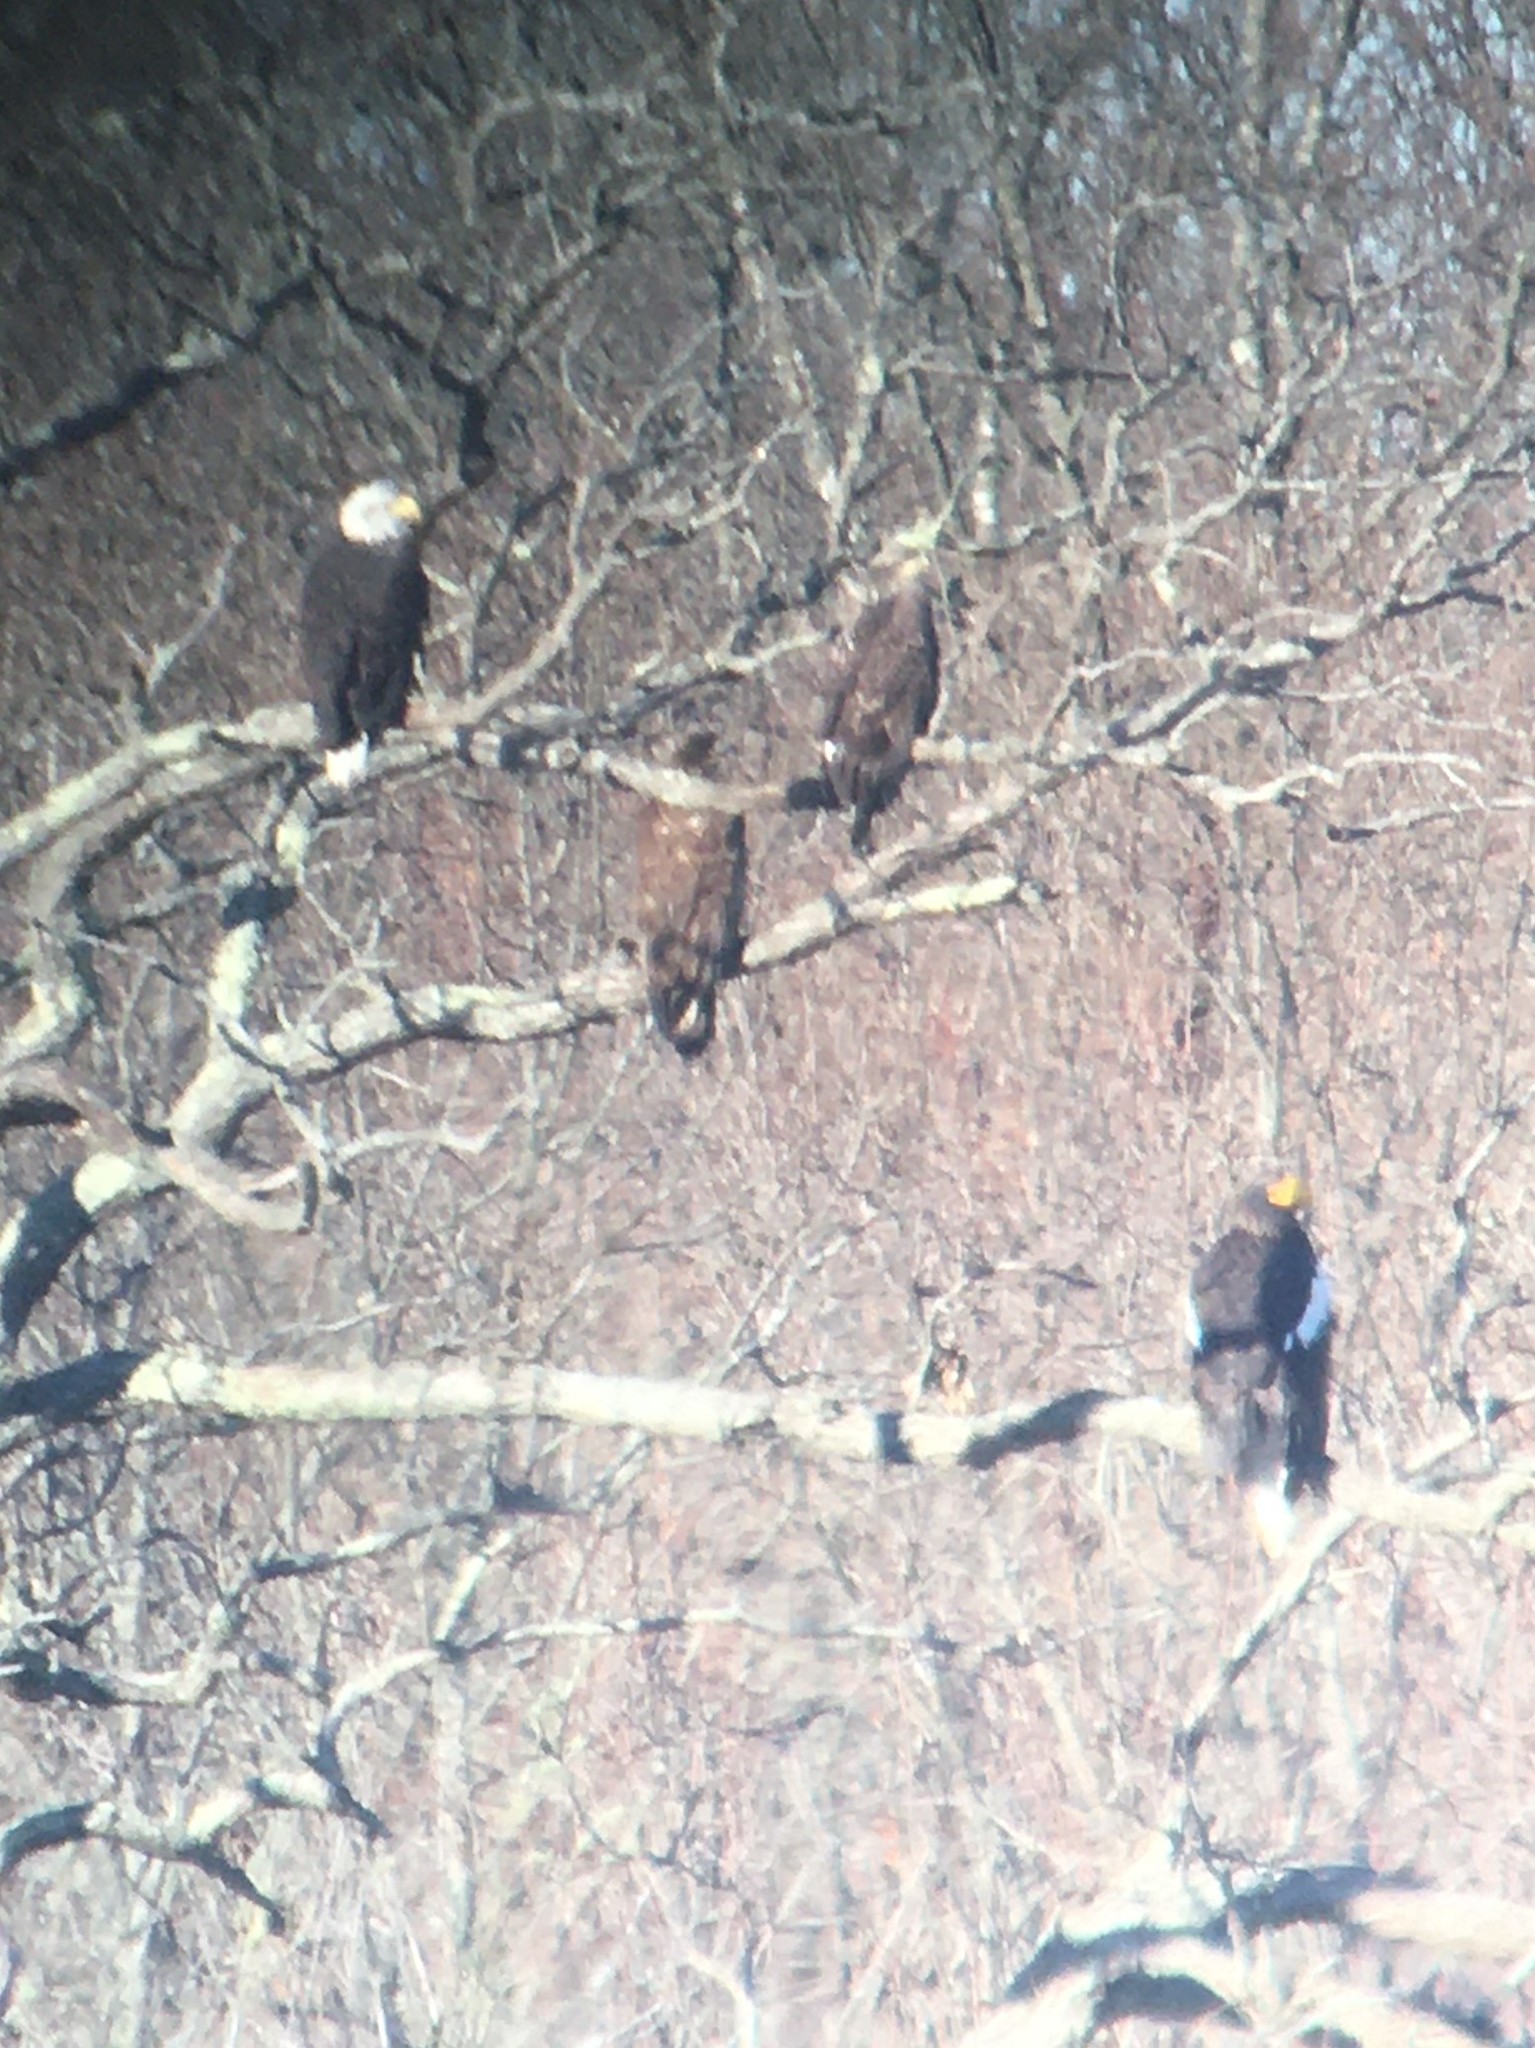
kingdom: Animalia
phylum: Chordata
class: Aves
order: Accipitriformes
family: Accipitridae
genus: Haliaeetus
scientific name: Haliaeetus leucocephalus
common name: Bald eagle
